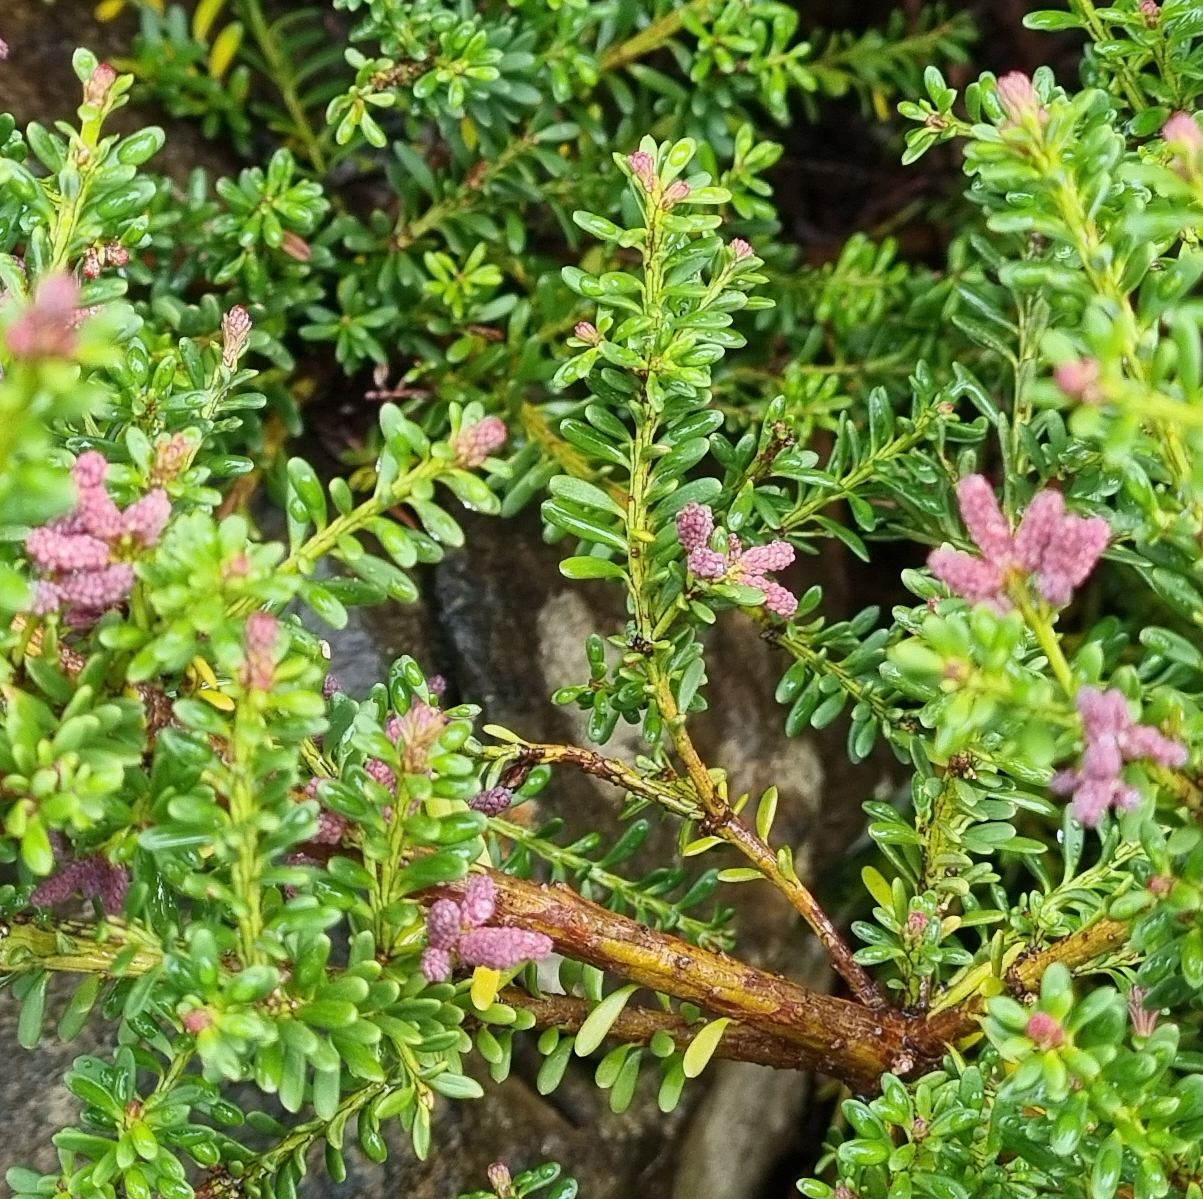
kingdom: Plantae
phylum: Tracheophyta
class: Pinopsida
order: Pinales
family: Podocarpaceae
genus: Podocarpus
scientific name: Podocarpus lawrencei
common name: Mountain plum pine
